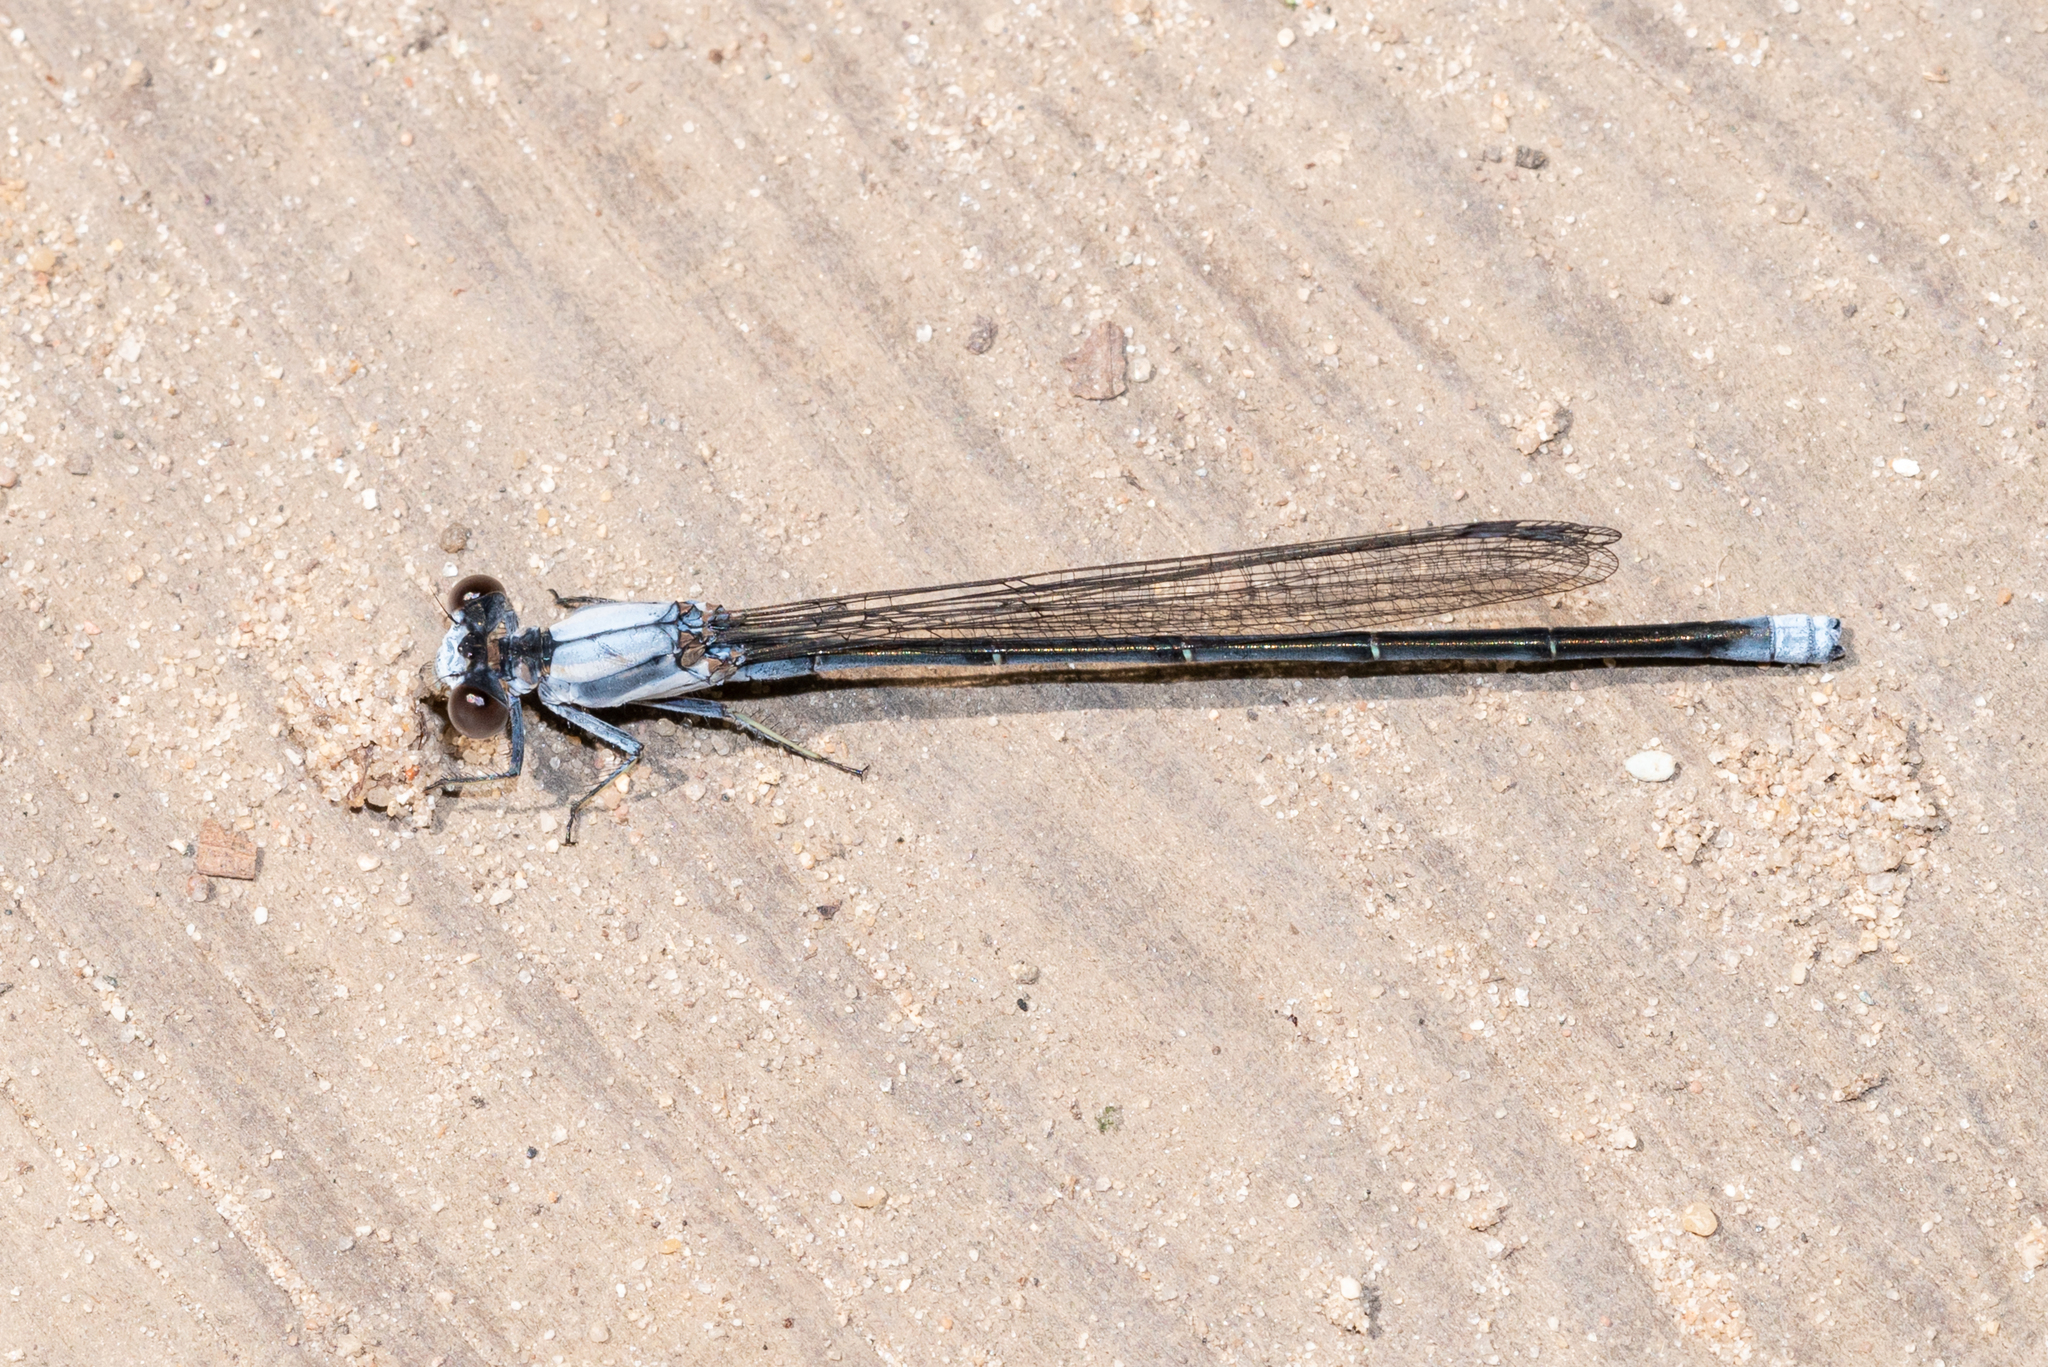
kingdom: Animalia
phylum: Arthropoda
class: Insecta
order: Odonata
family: Coenagrionidae
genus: Argia
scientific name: Argia moesta
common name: Powdered dancer
